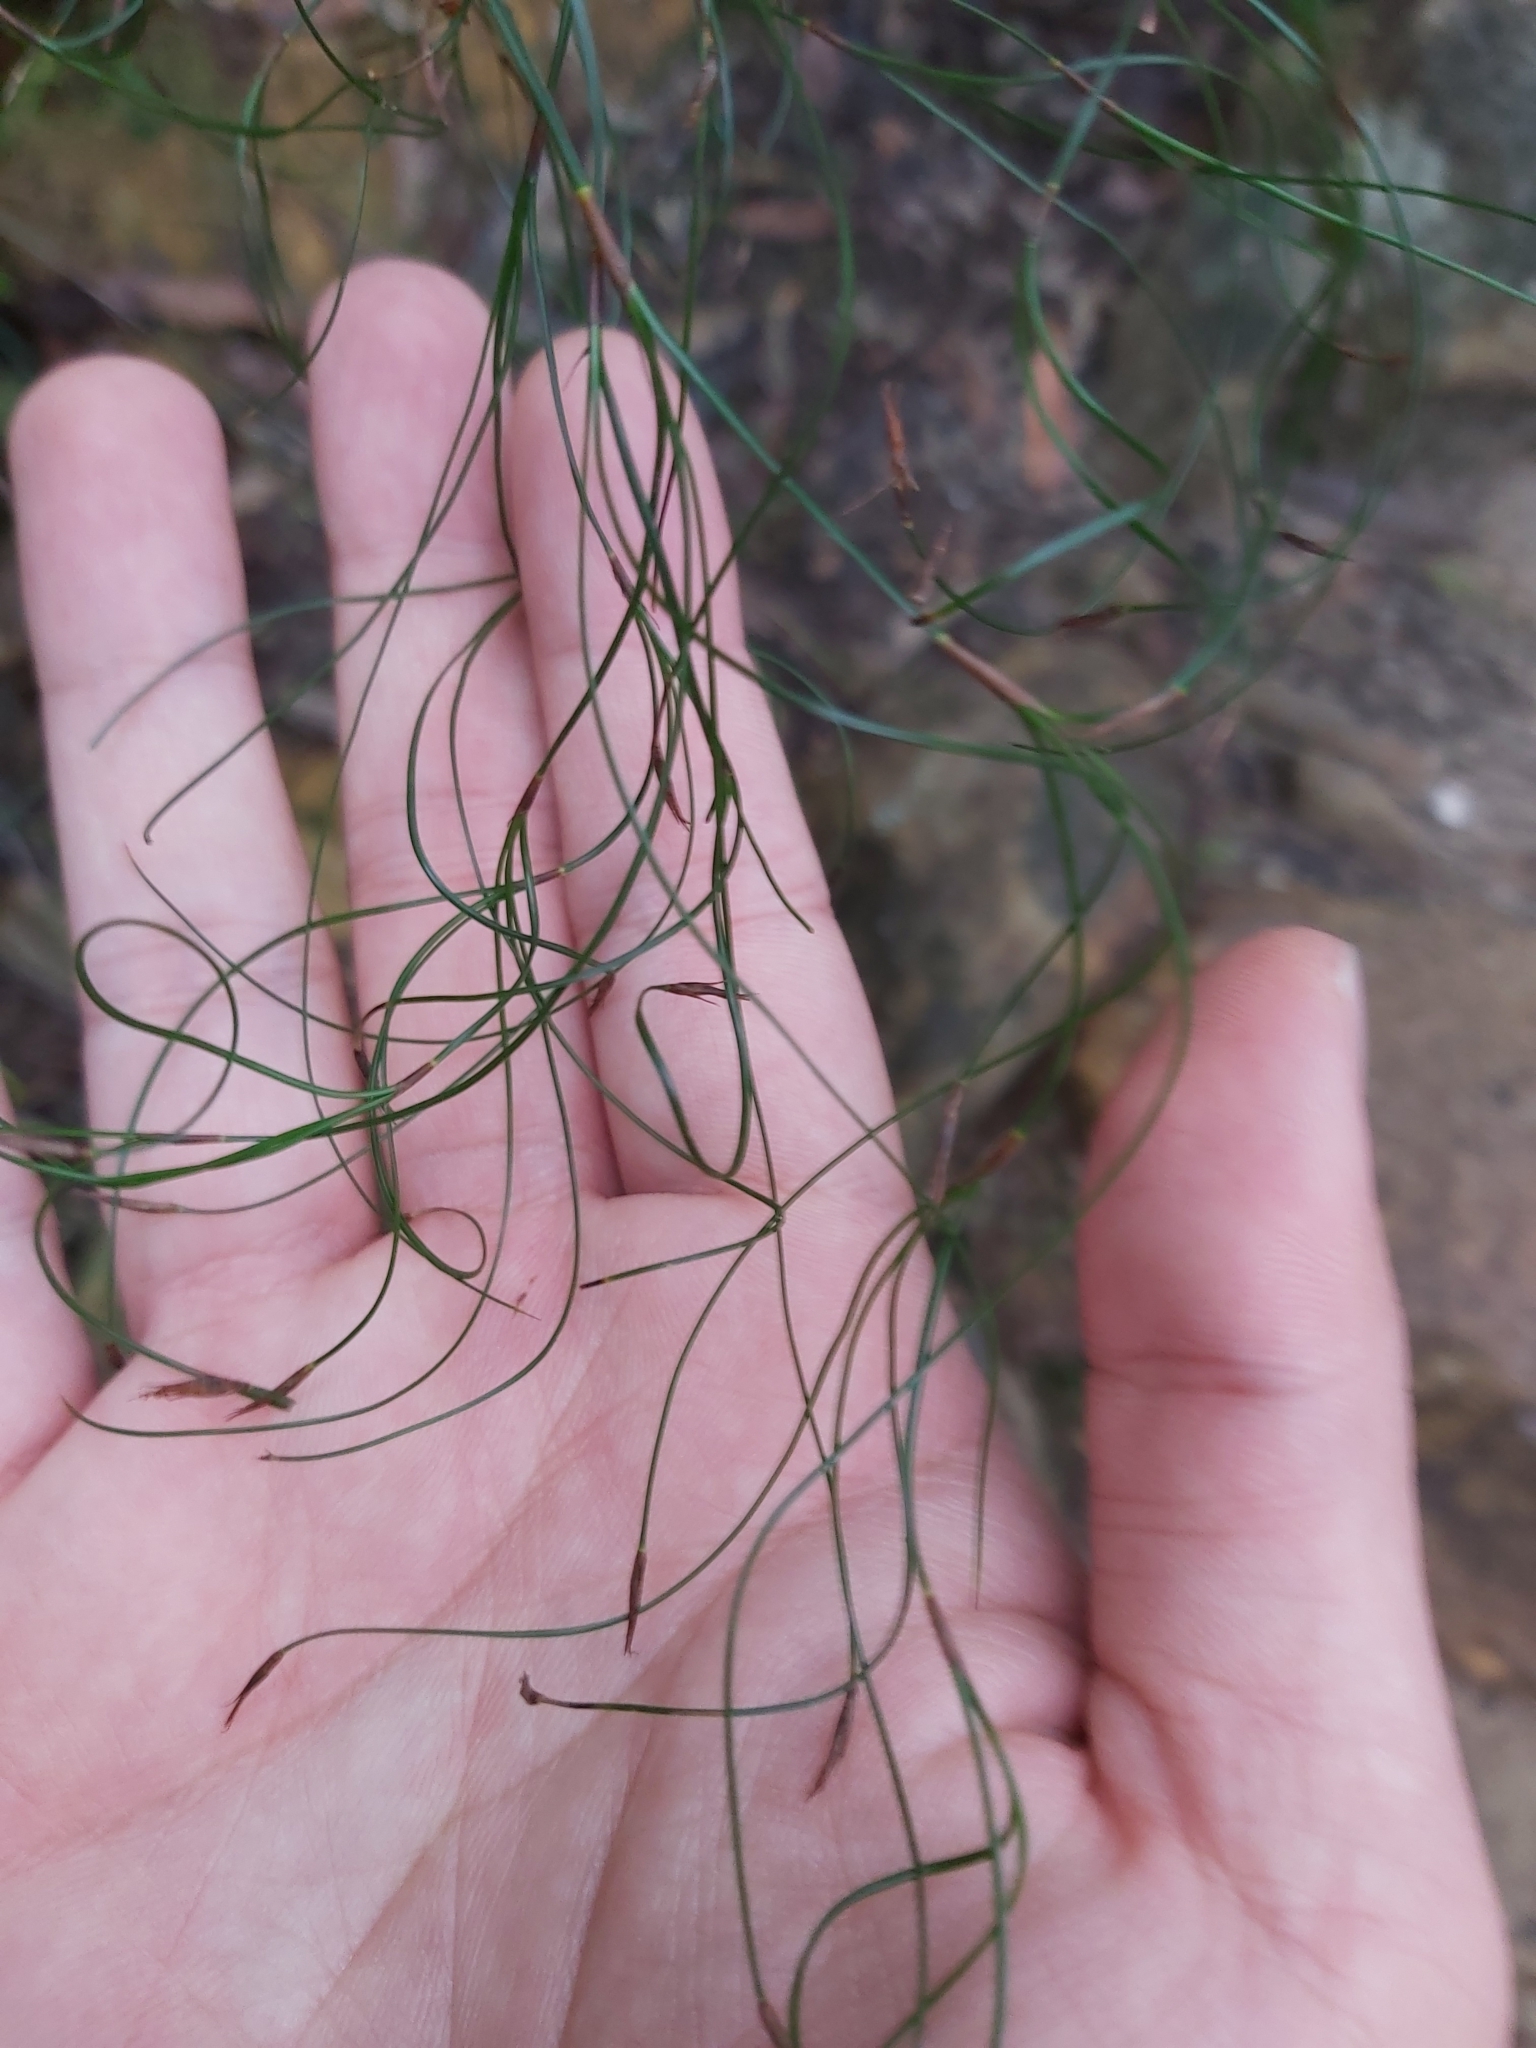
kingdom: Plantae
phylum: Tracheophyta
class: Liliopsida
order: Poales
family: Cyperaceae
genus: Caustis
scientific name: Caustis flexuosa
